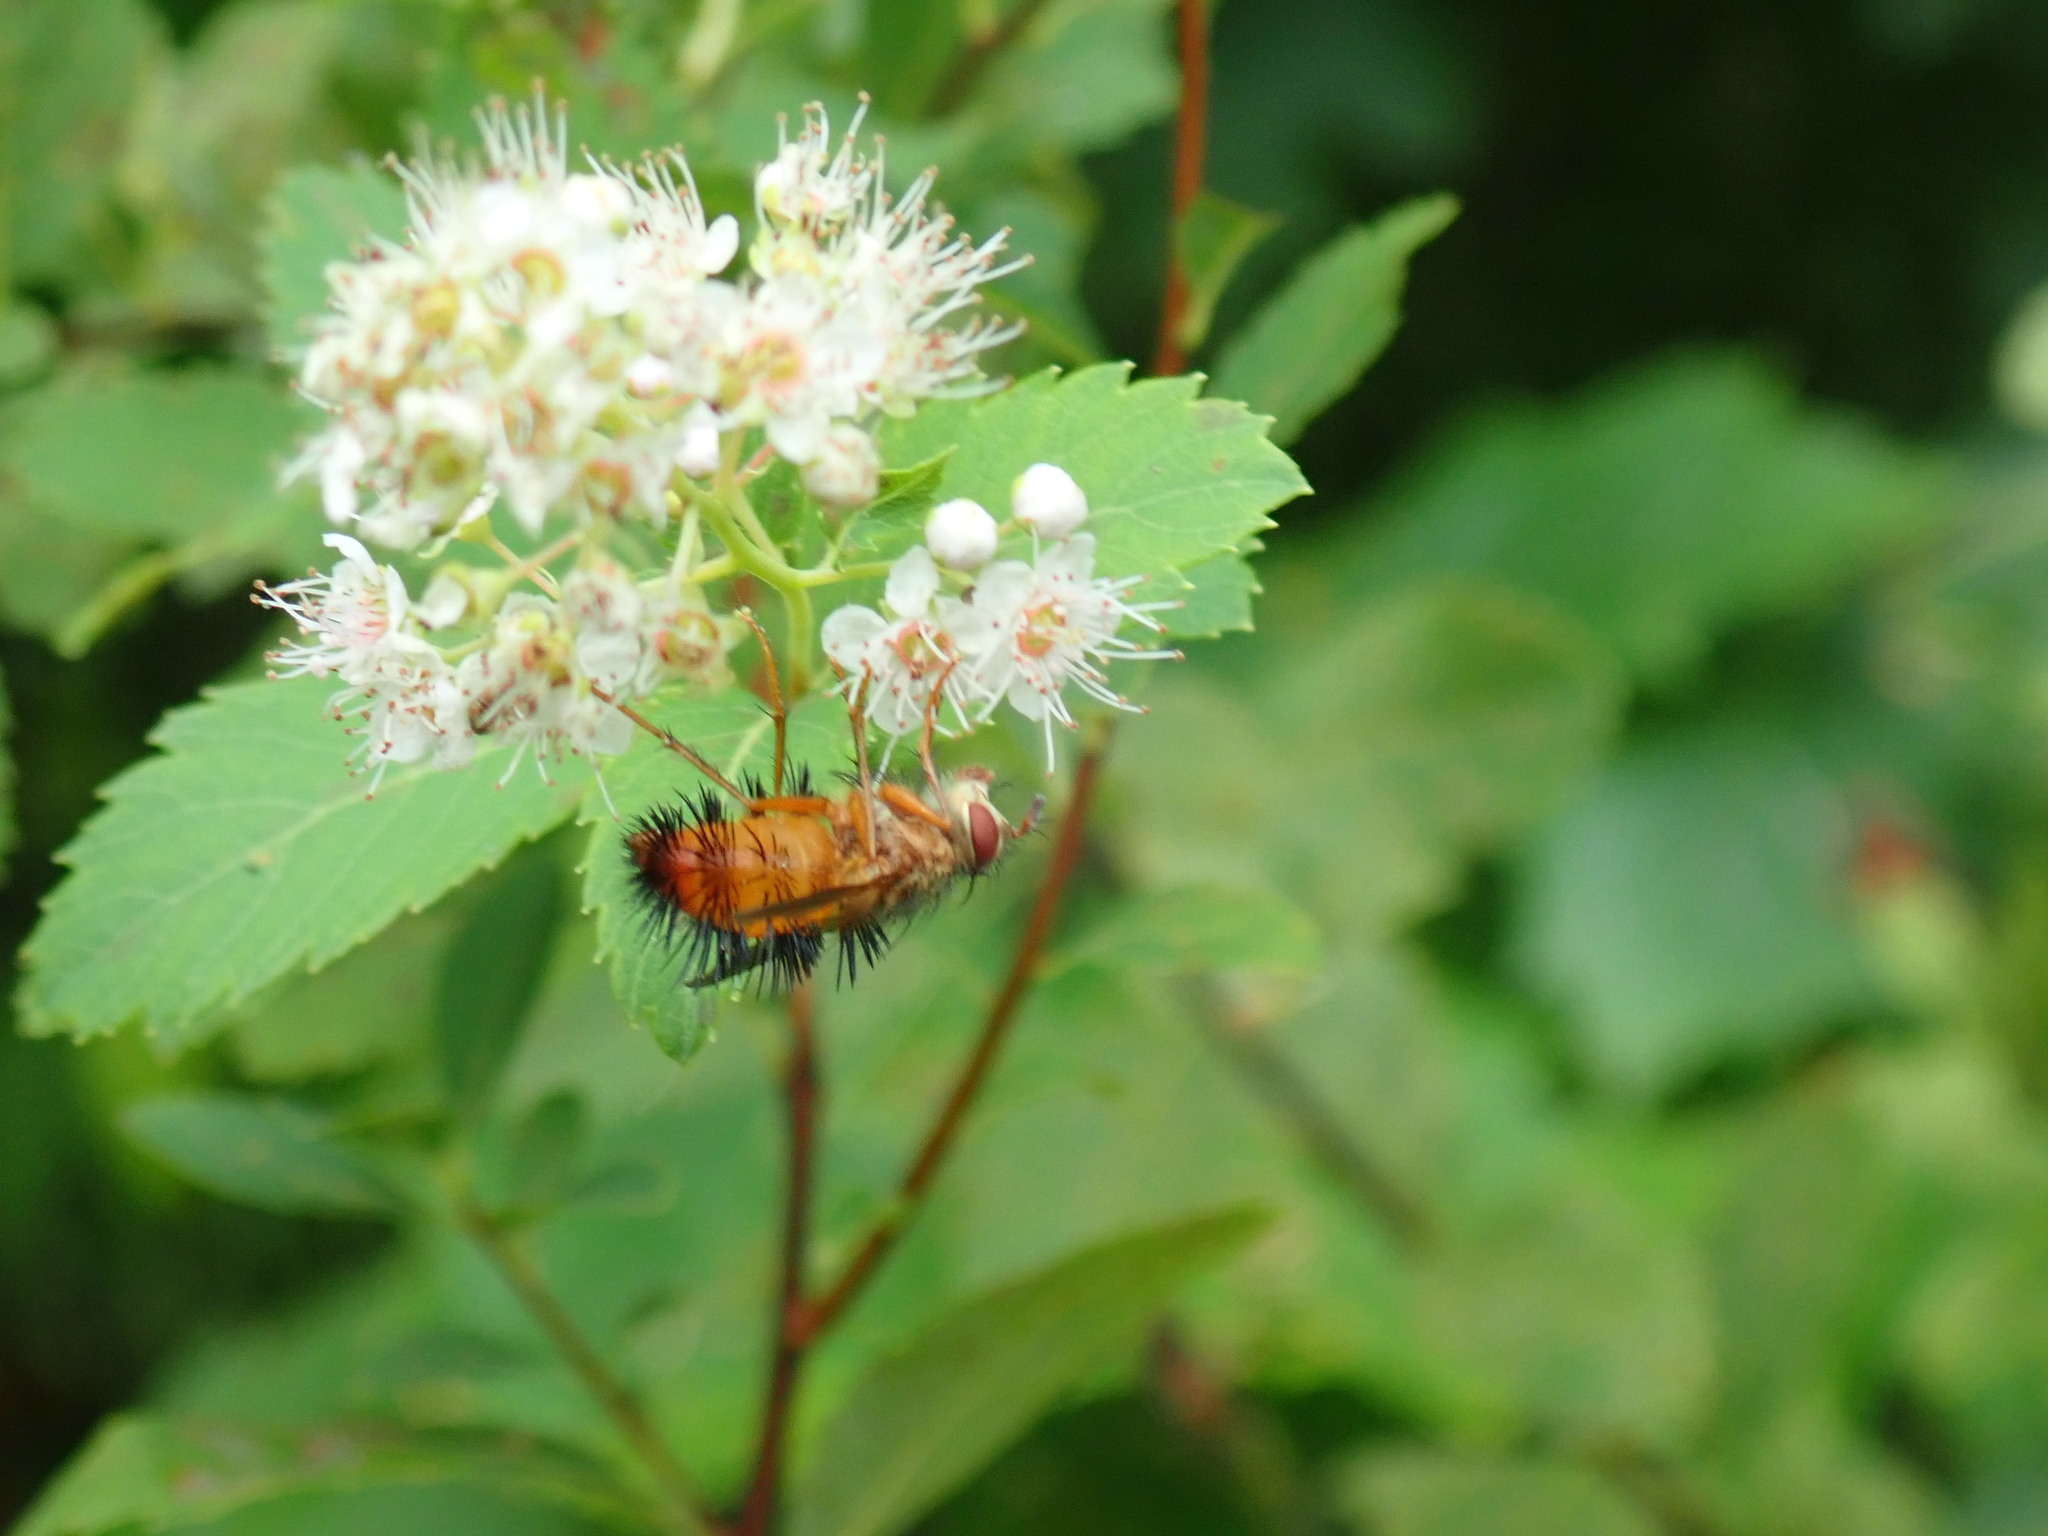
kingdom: Animalia
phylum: Arthropoda
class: Insecta
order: Diptera
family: Tachinidae
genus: Hystricia
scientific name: Hystricia abrupta
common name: Tomato bristle fly
